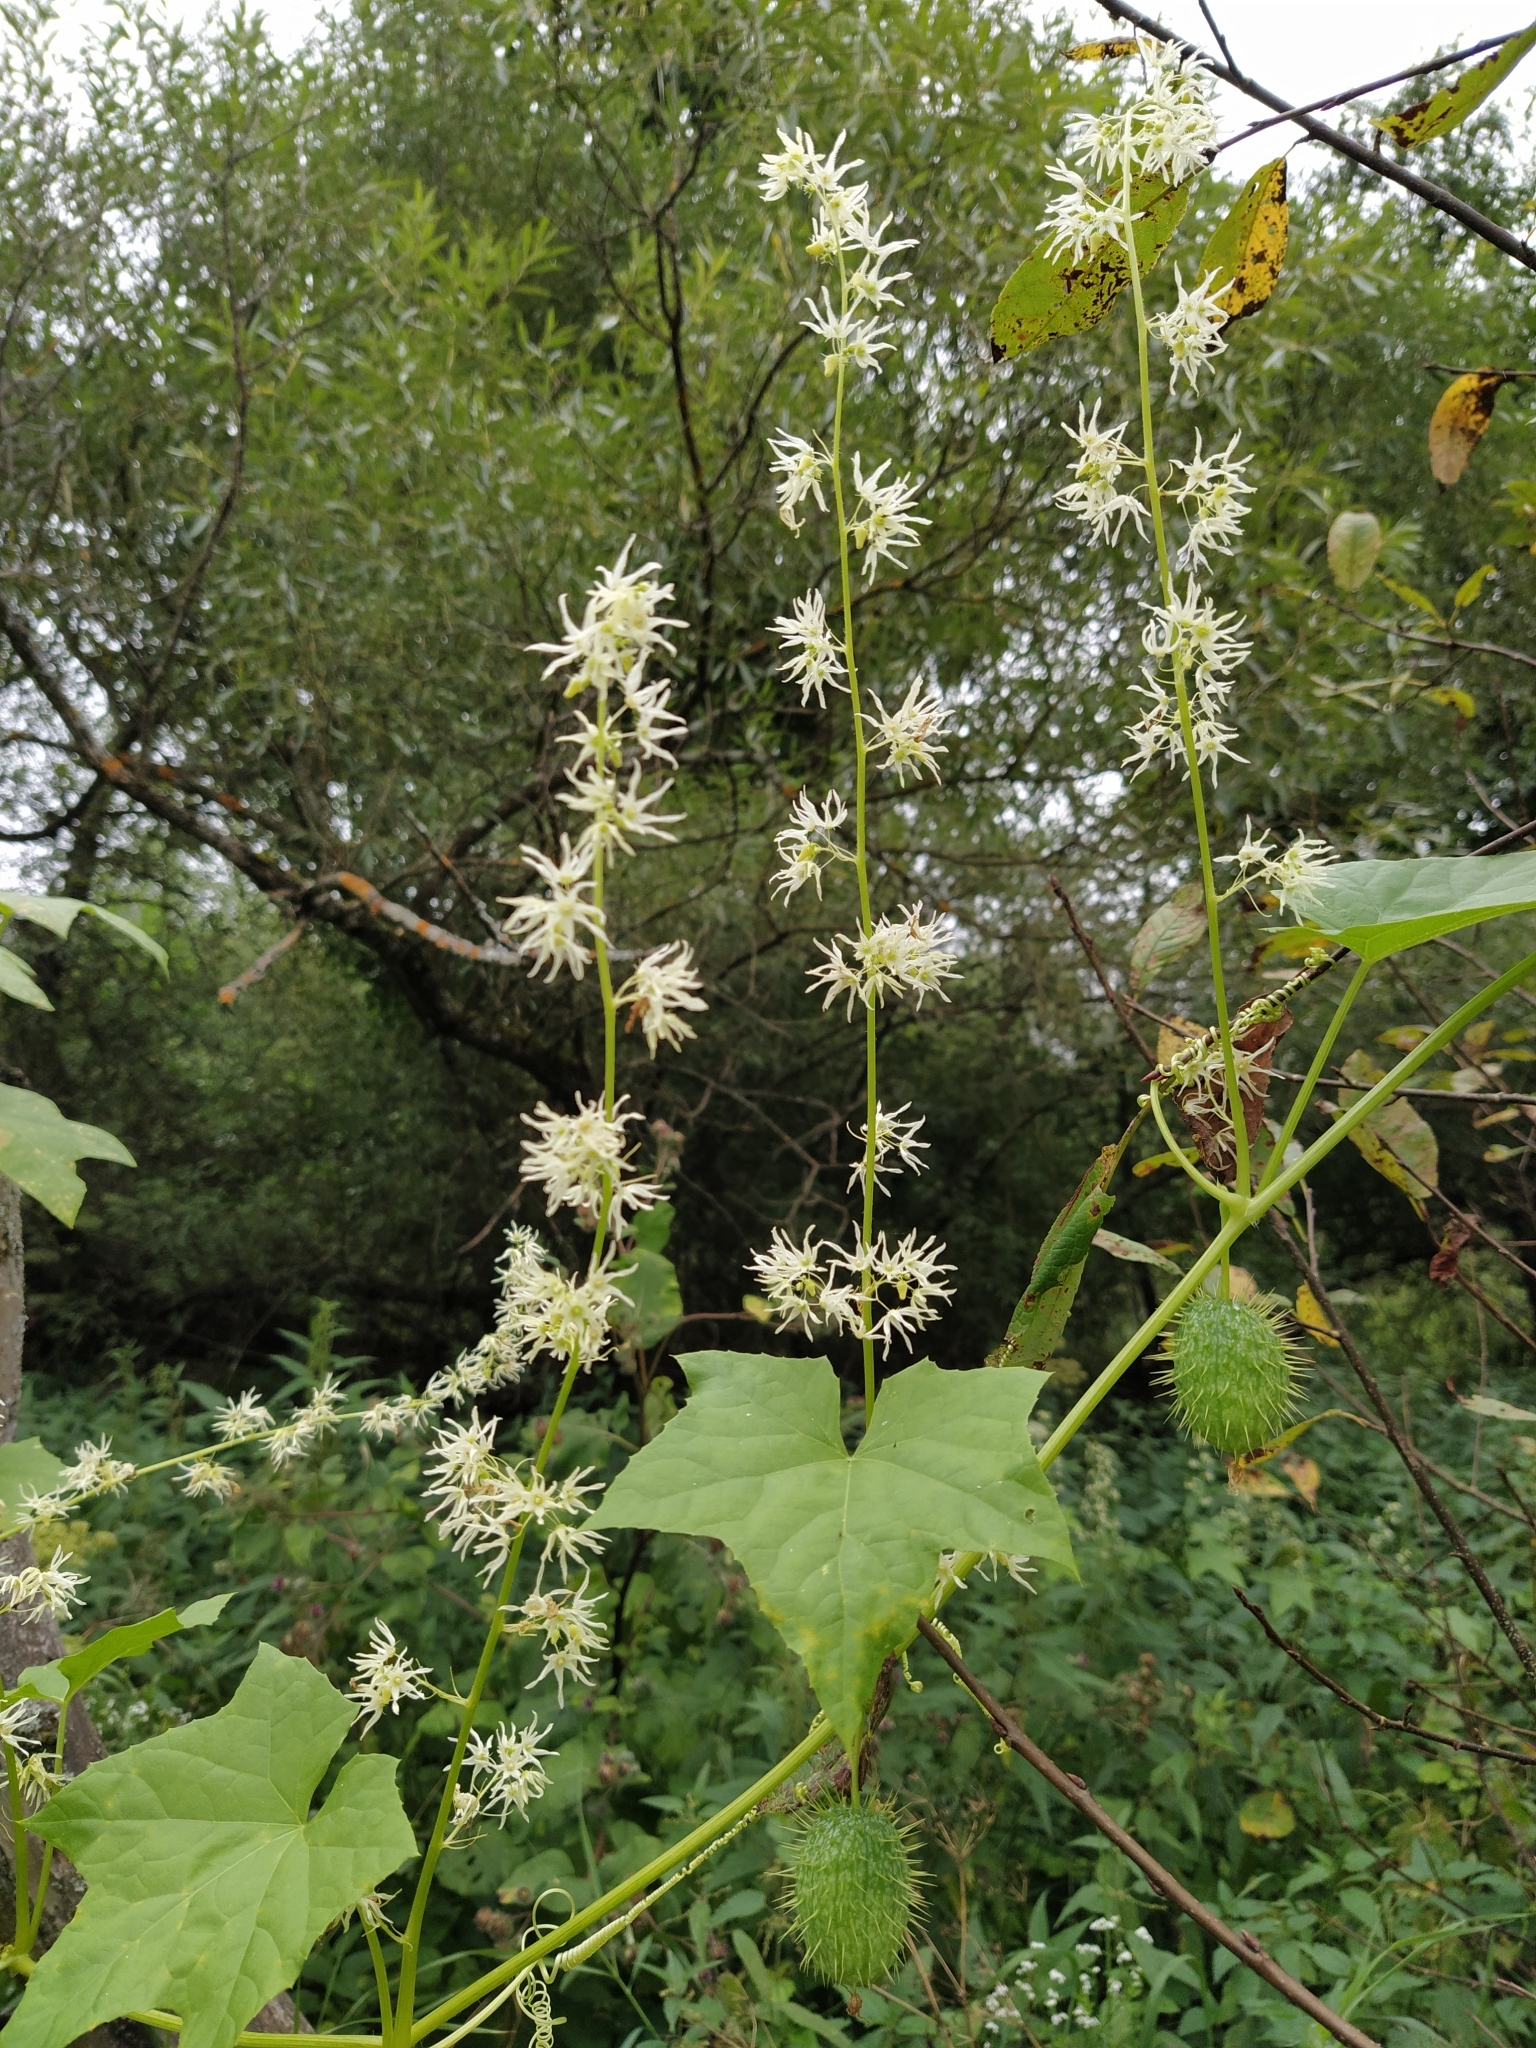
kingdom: Plantae
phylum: Tracheophyta
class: Magnoliopsida
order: Cucurbitales
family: Cucurbitaceae
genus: Echinocystis
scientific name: Echinocystis lobata
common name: Wild cucumber
